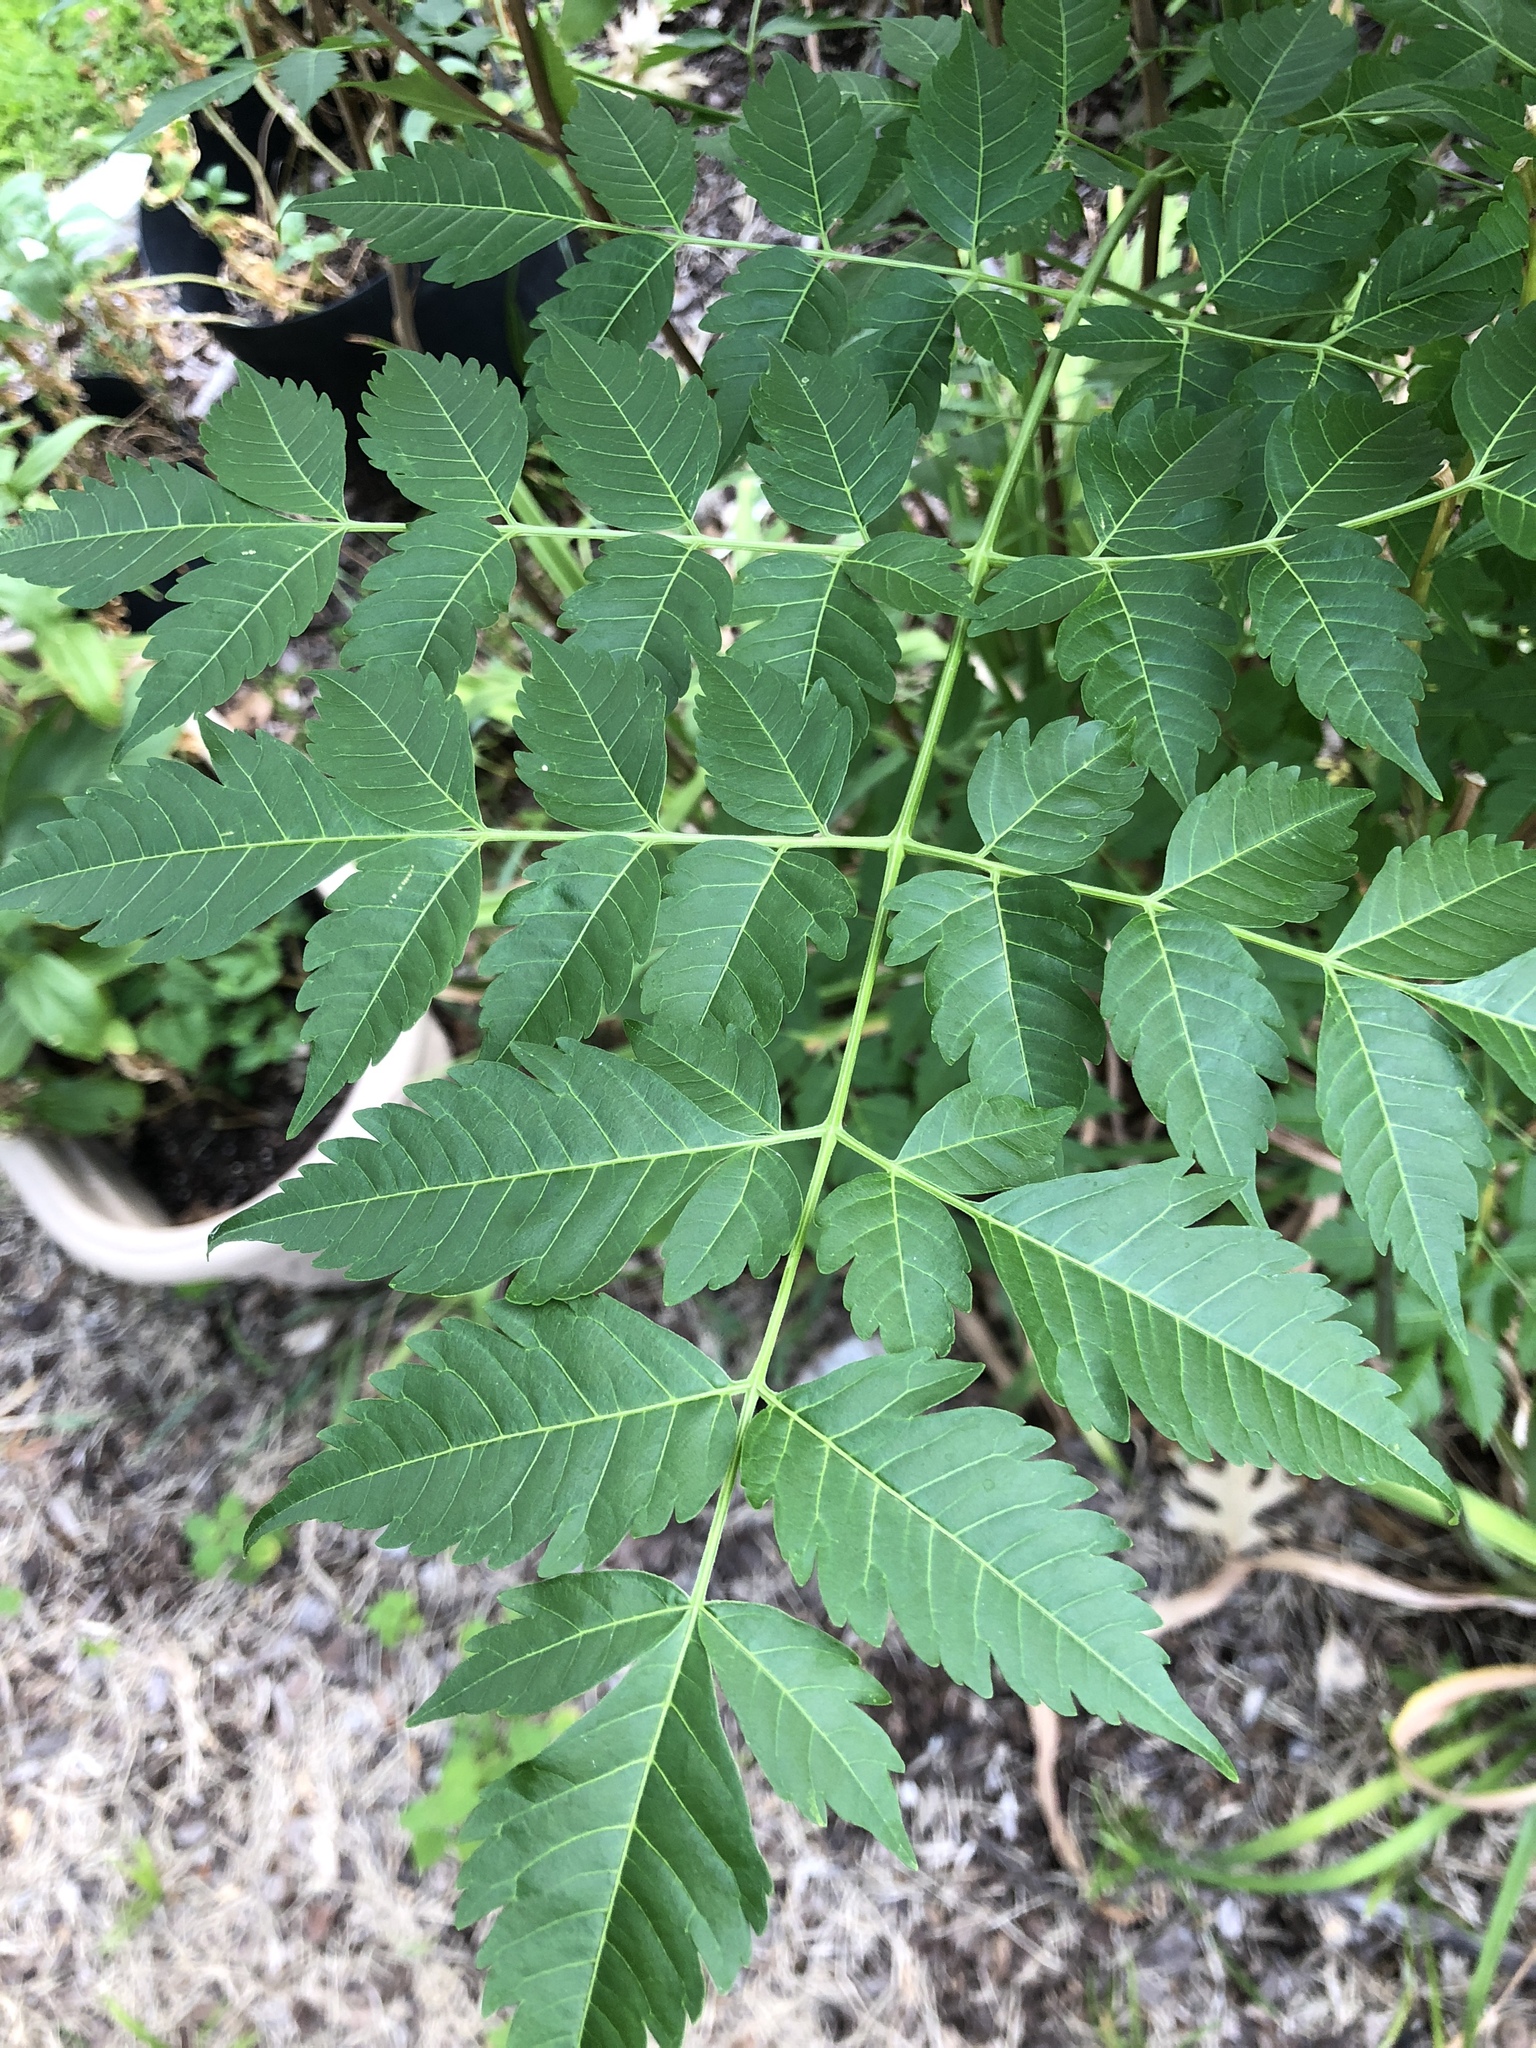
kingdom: Plantae
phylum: Tracheophyta
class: Magnoliopsida
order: Sapindales
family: Meliaceae
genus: Melia
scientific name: Melia azedarach
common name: Chinaberrytree
